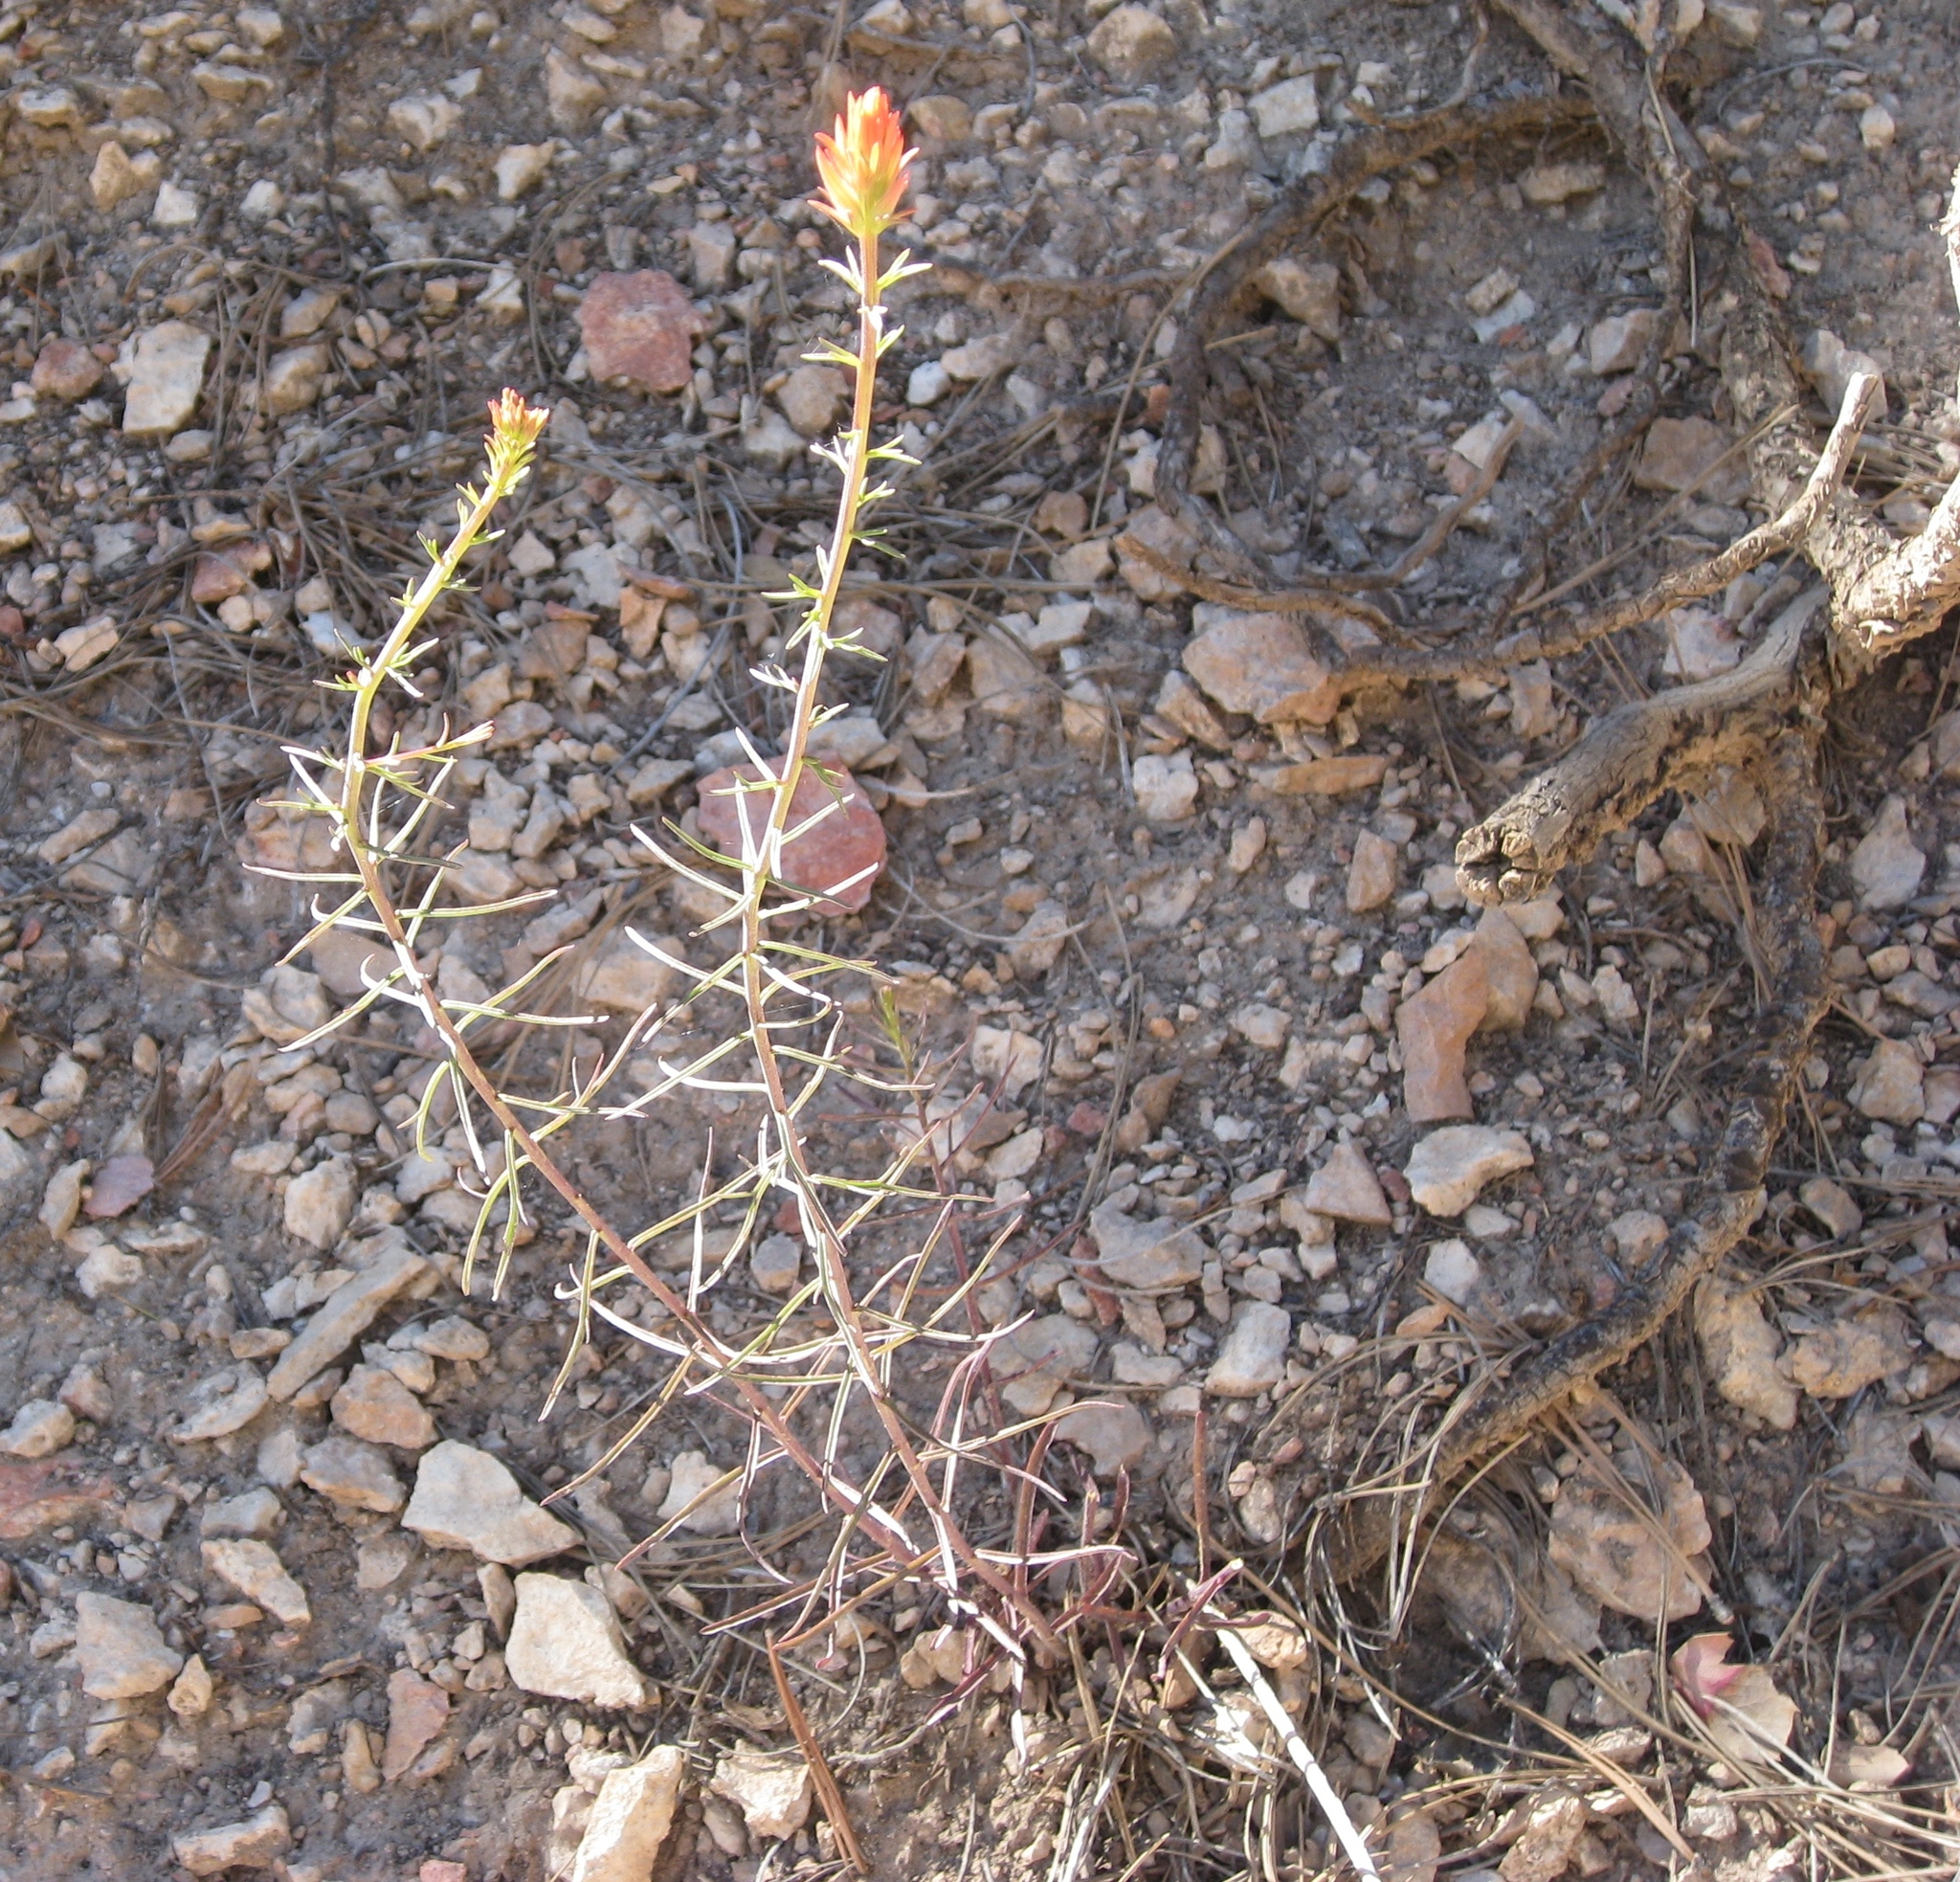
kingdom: Plantae
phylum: Tracheophyta
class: Magnoliopsida
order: Lamiales
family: Orobanchaceae
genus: Castilleja
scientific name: Castilleja linariifolia
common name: Wyoming paintbrush
